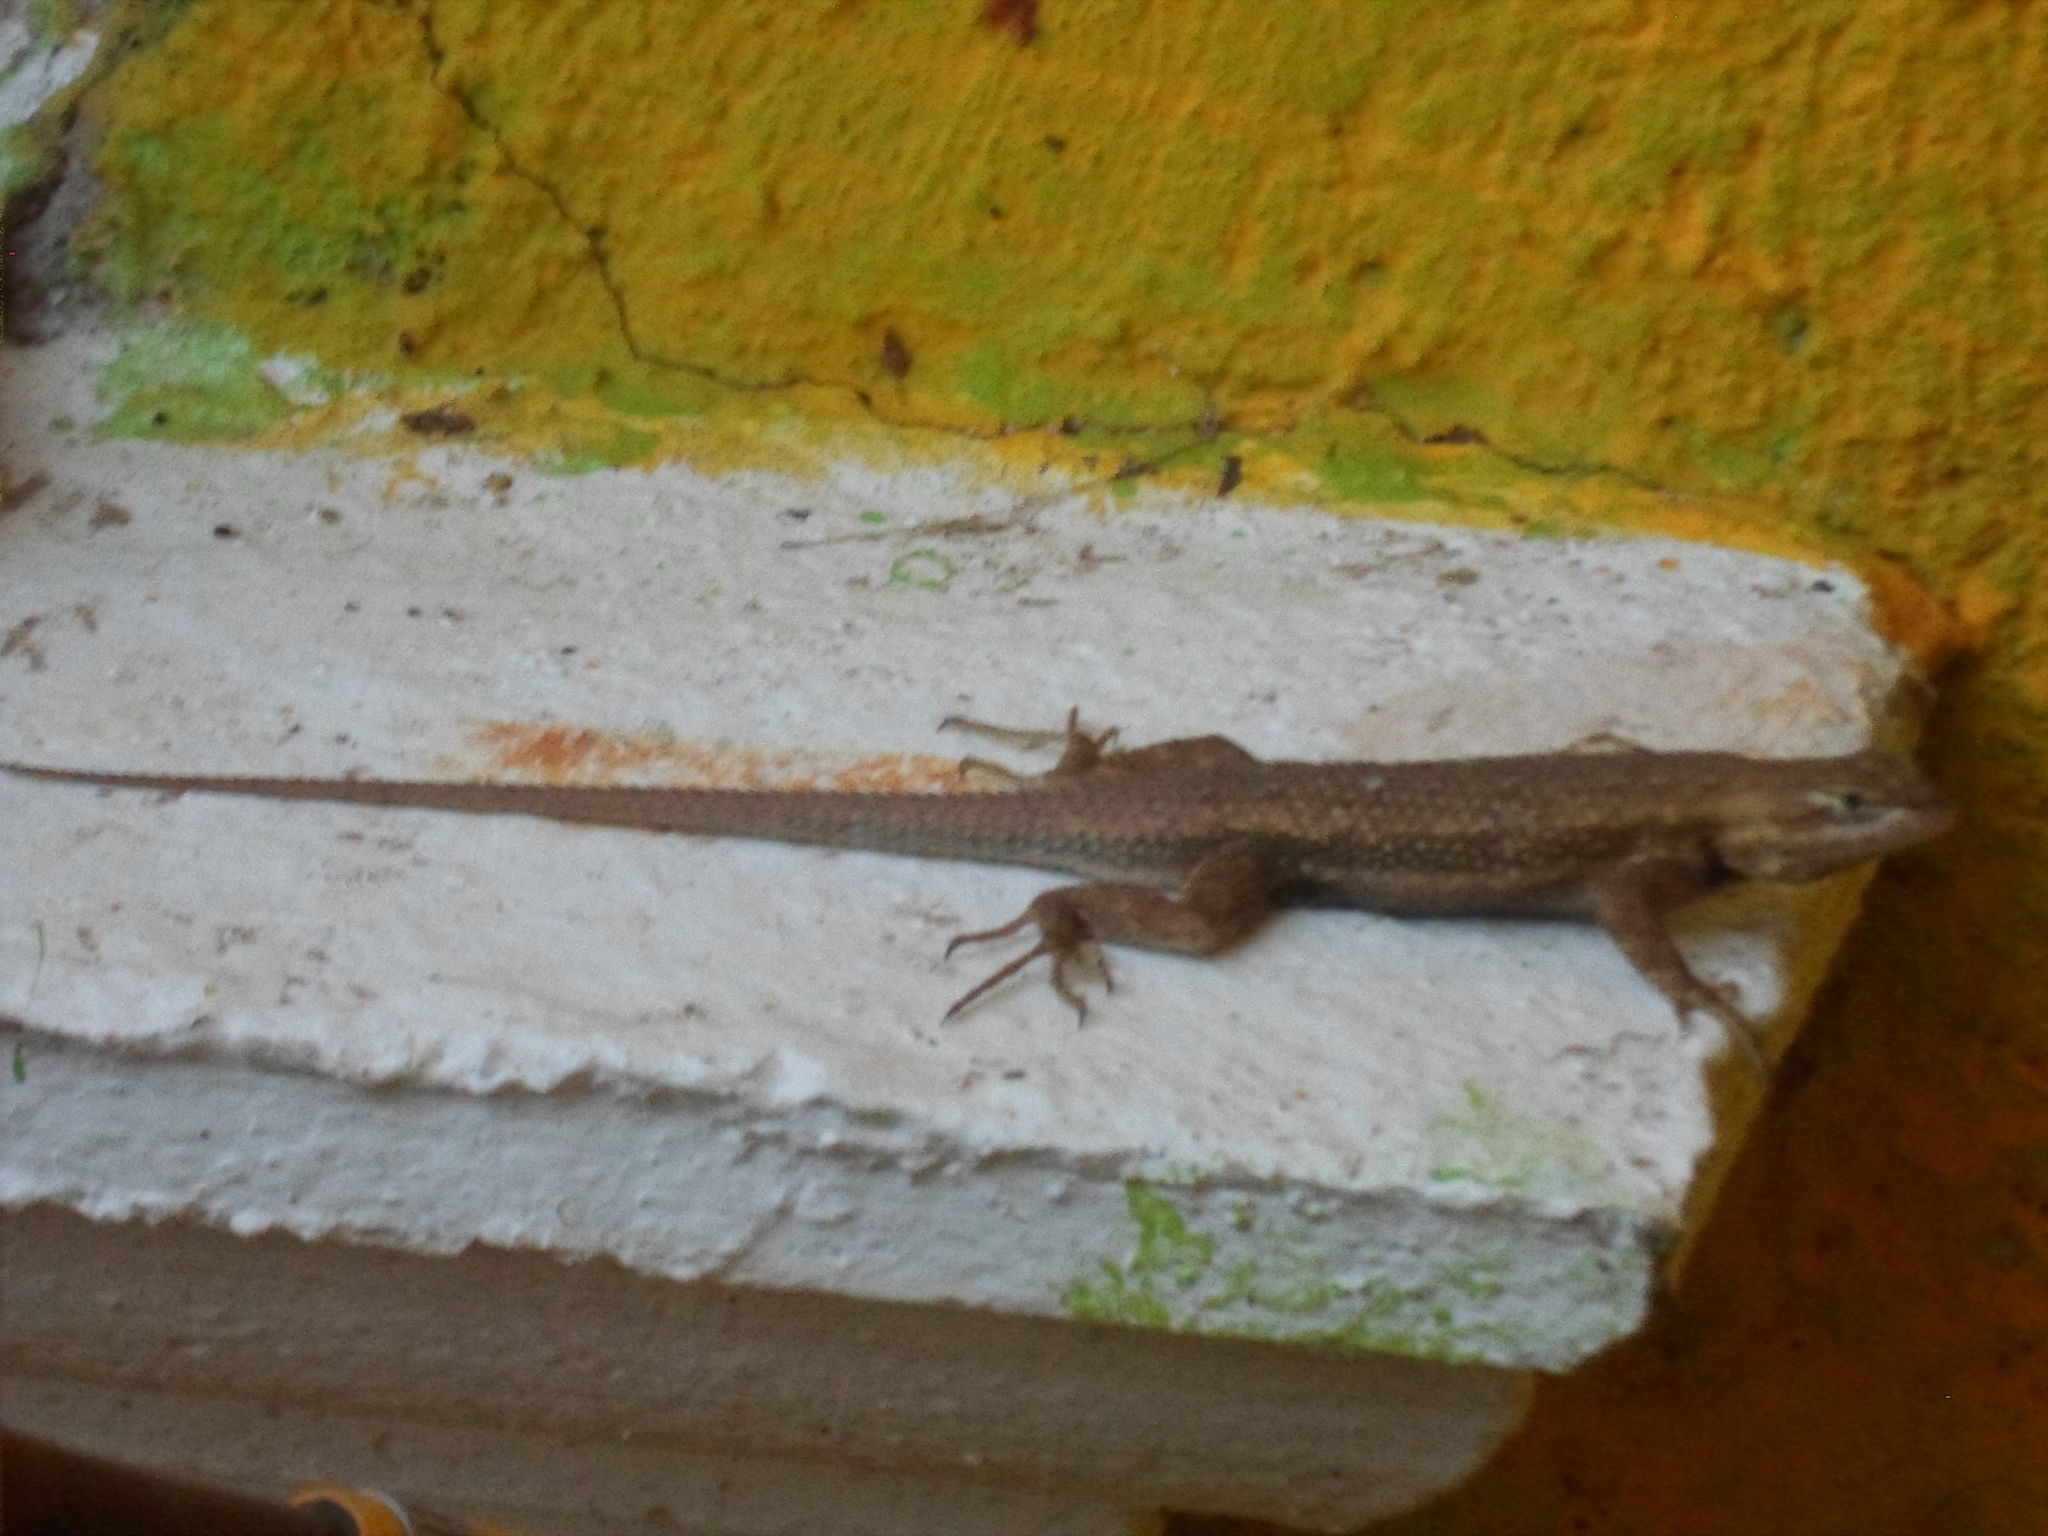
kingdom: Animalia
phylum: Chordata
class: Squamata
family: Phrynosomatidae
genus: Sceloporus
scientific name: Sceloporus edbelli
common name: Bell's spiny lizard
